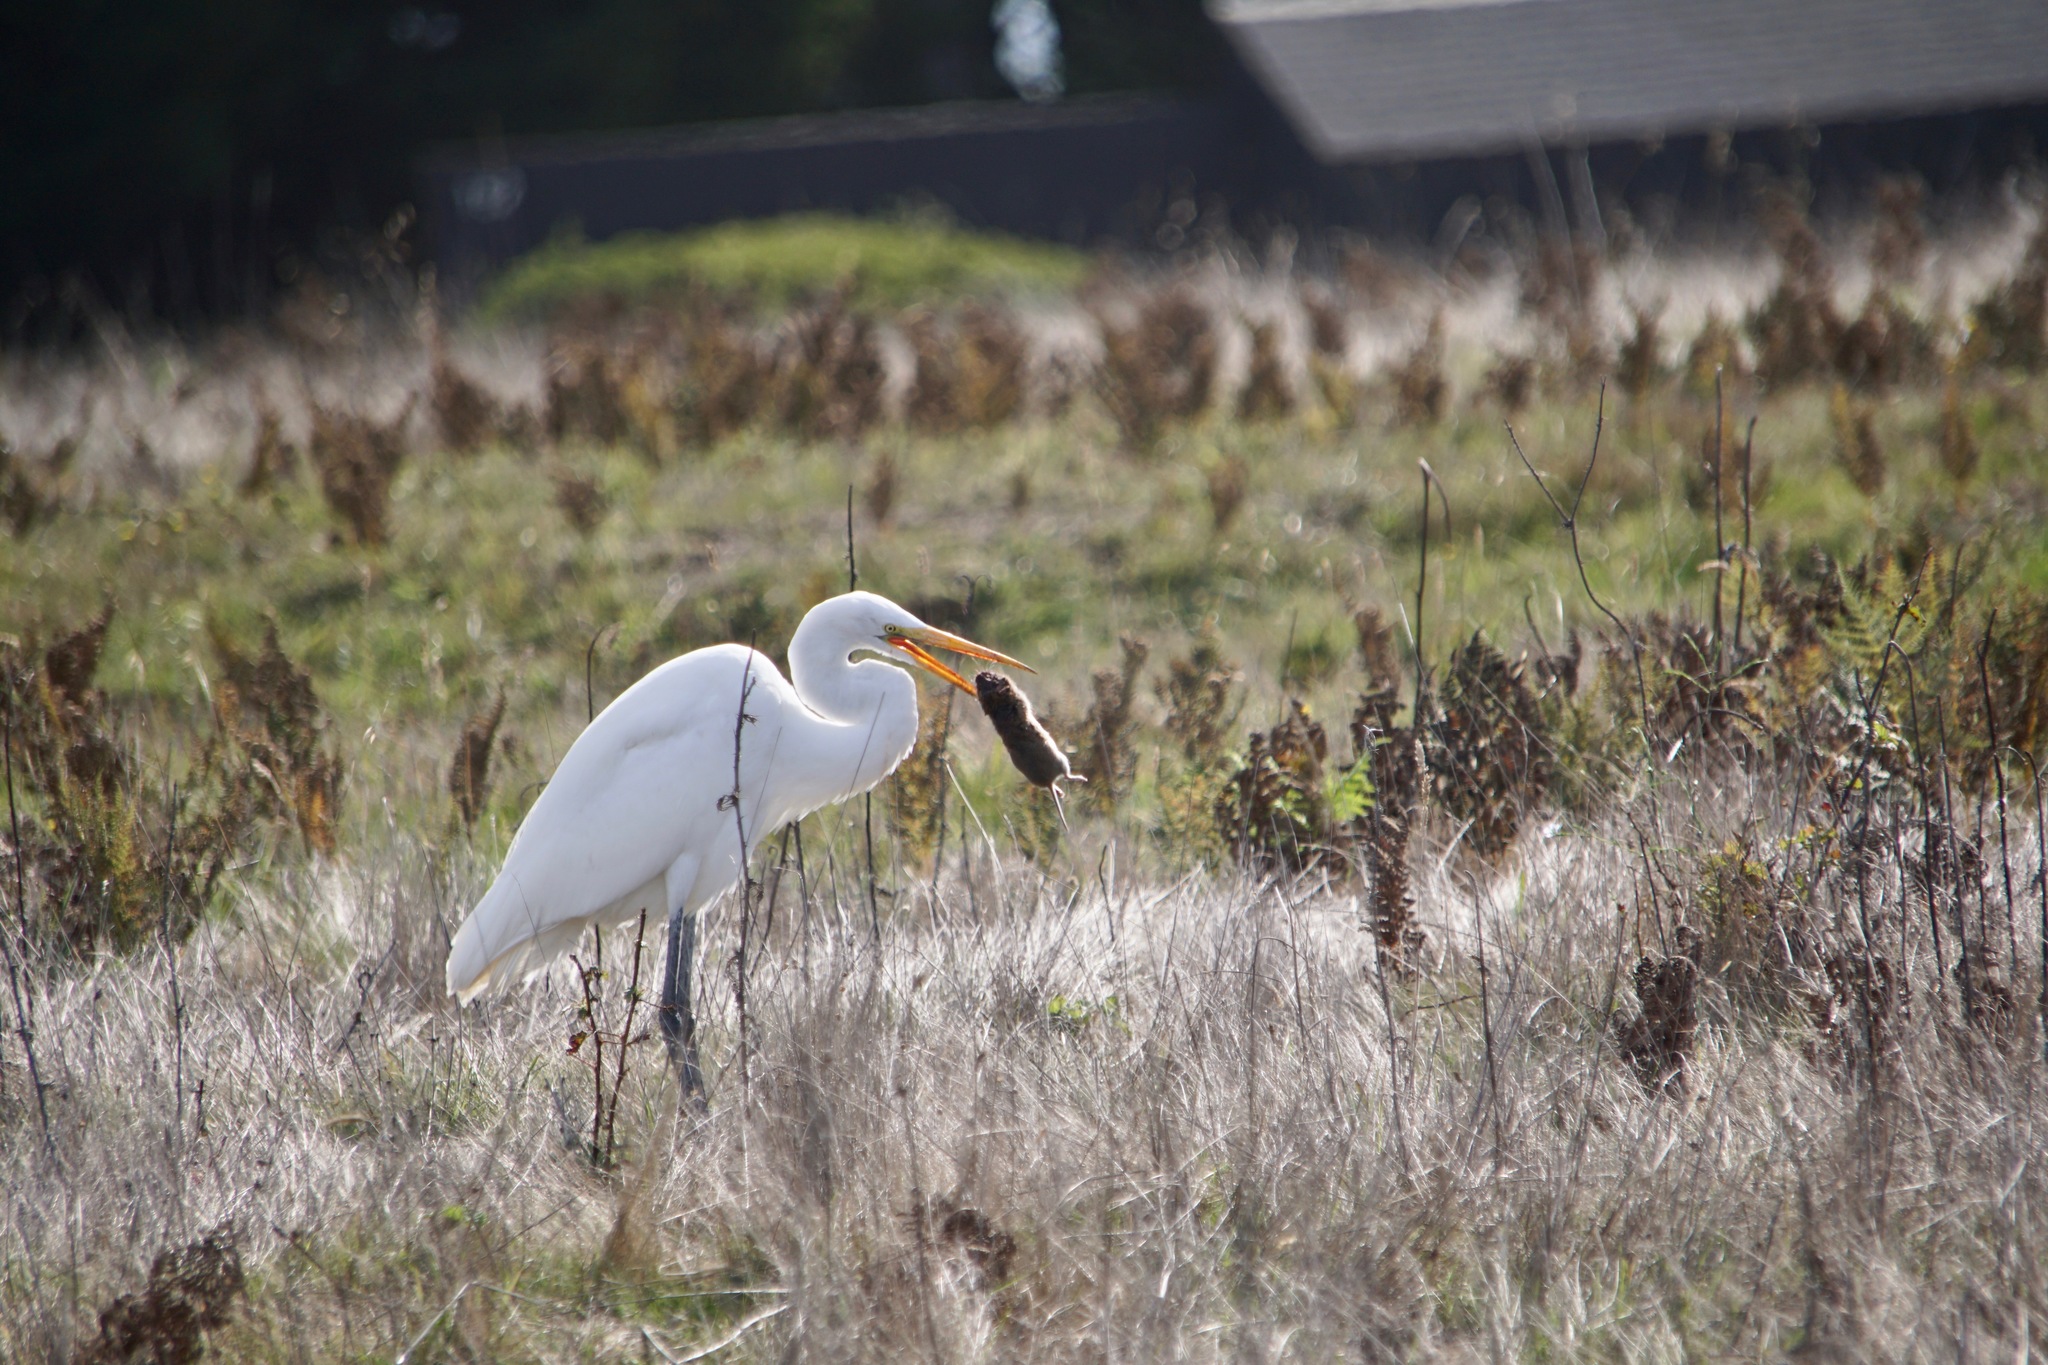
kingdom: Animalia
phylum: Chordata
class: Aves
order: Pelecaniformes
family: Ardeidae
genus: Ardea
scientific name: Ardea alba
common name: Great egret
